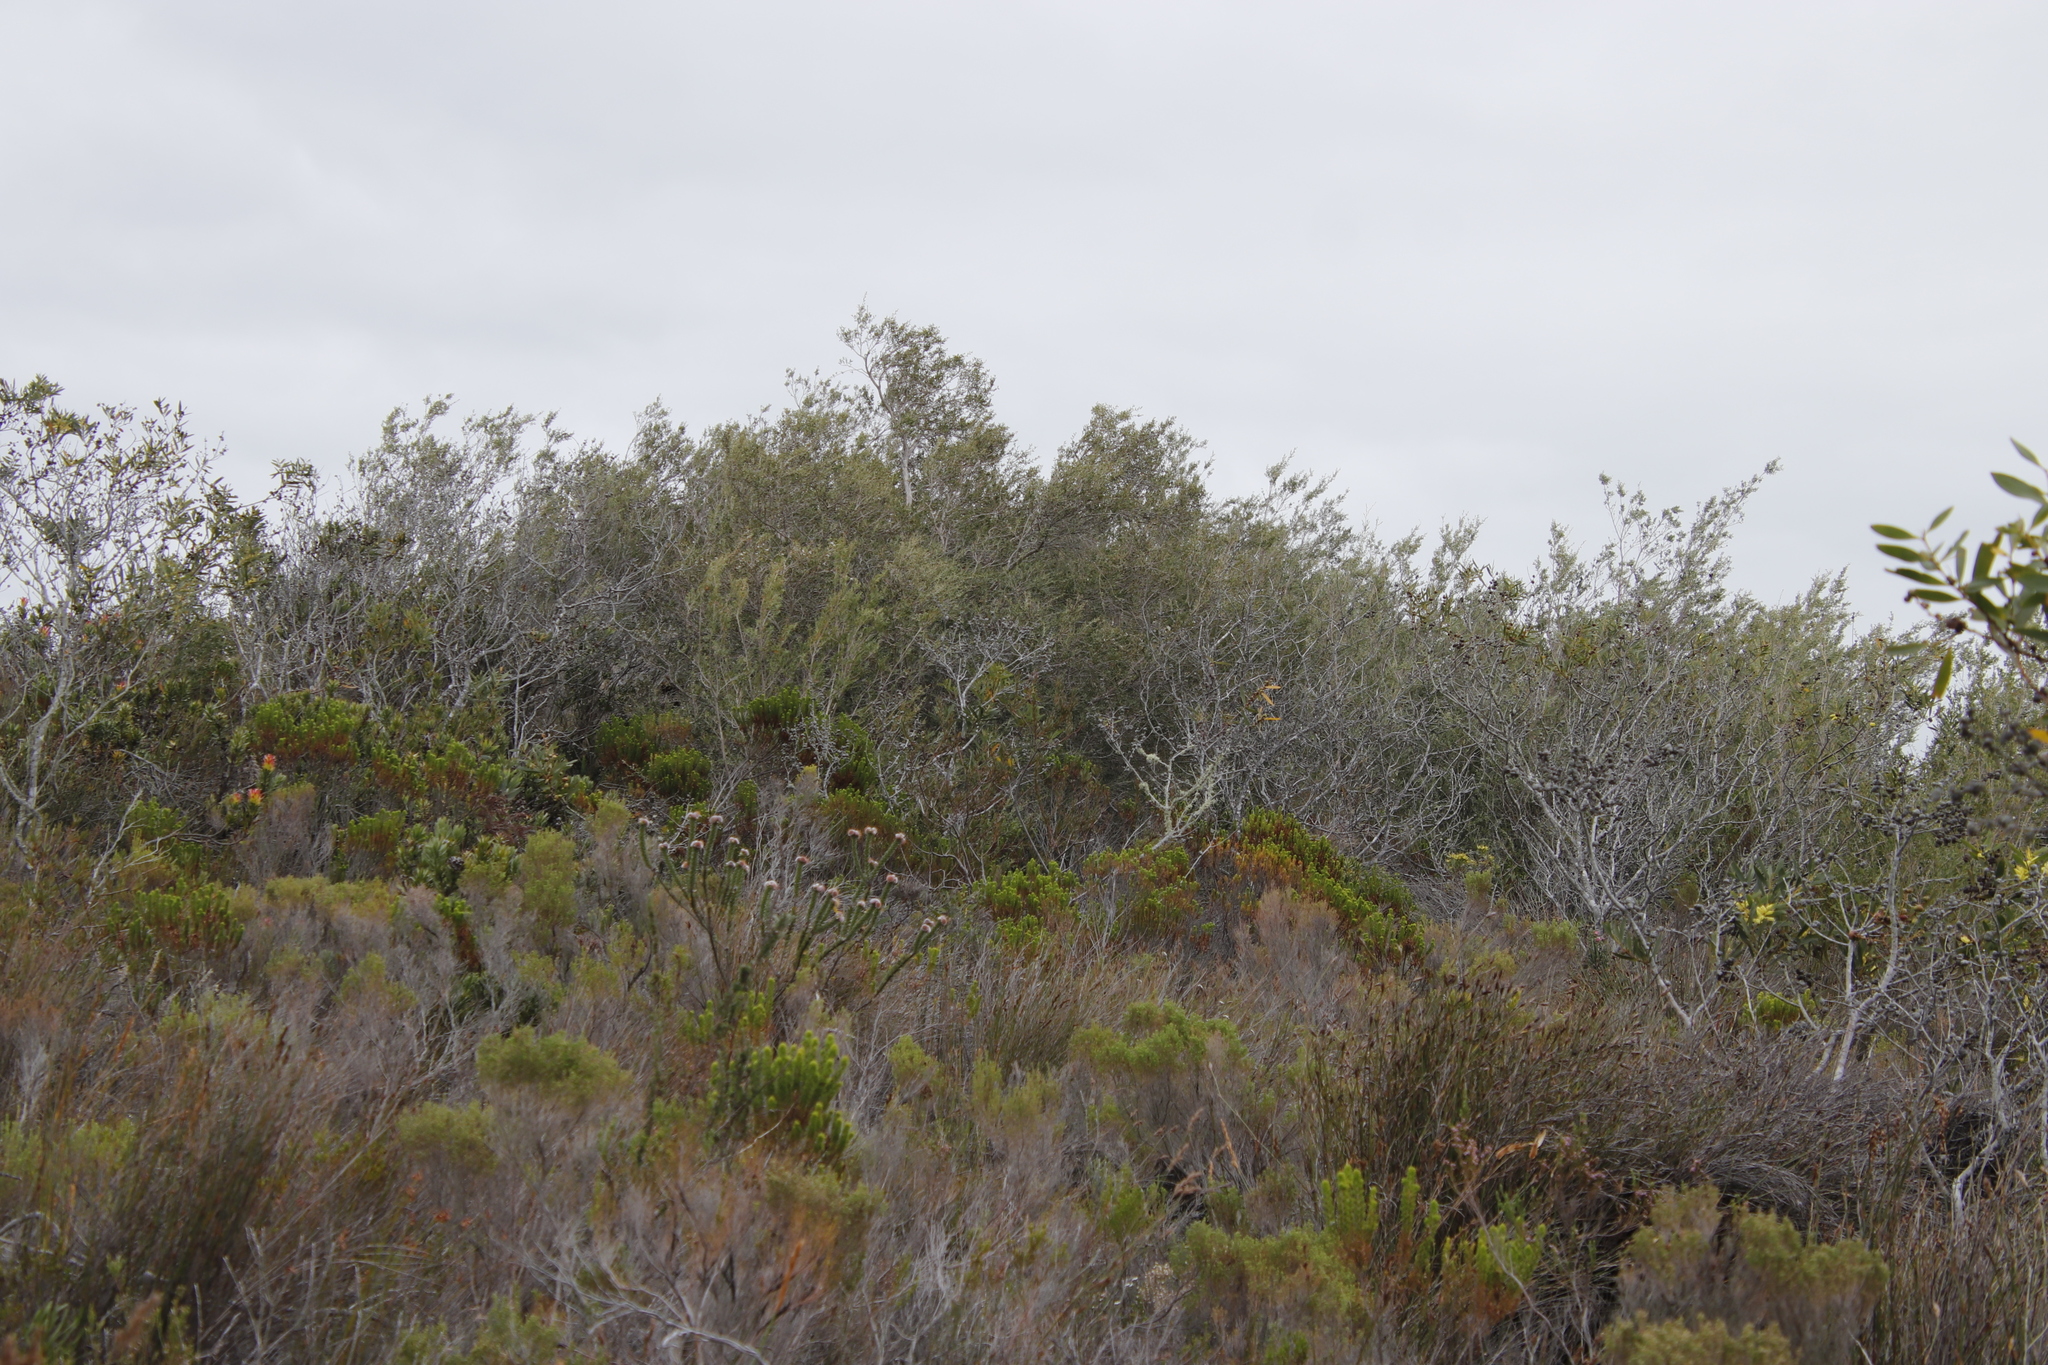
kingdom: Plantae
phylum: Tracheophyta
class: Magnoliopsida
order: Myrtales
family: Myrtaceae
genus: Leptospermum
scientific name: Leptospermum laevigatum
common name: Australian teatree
